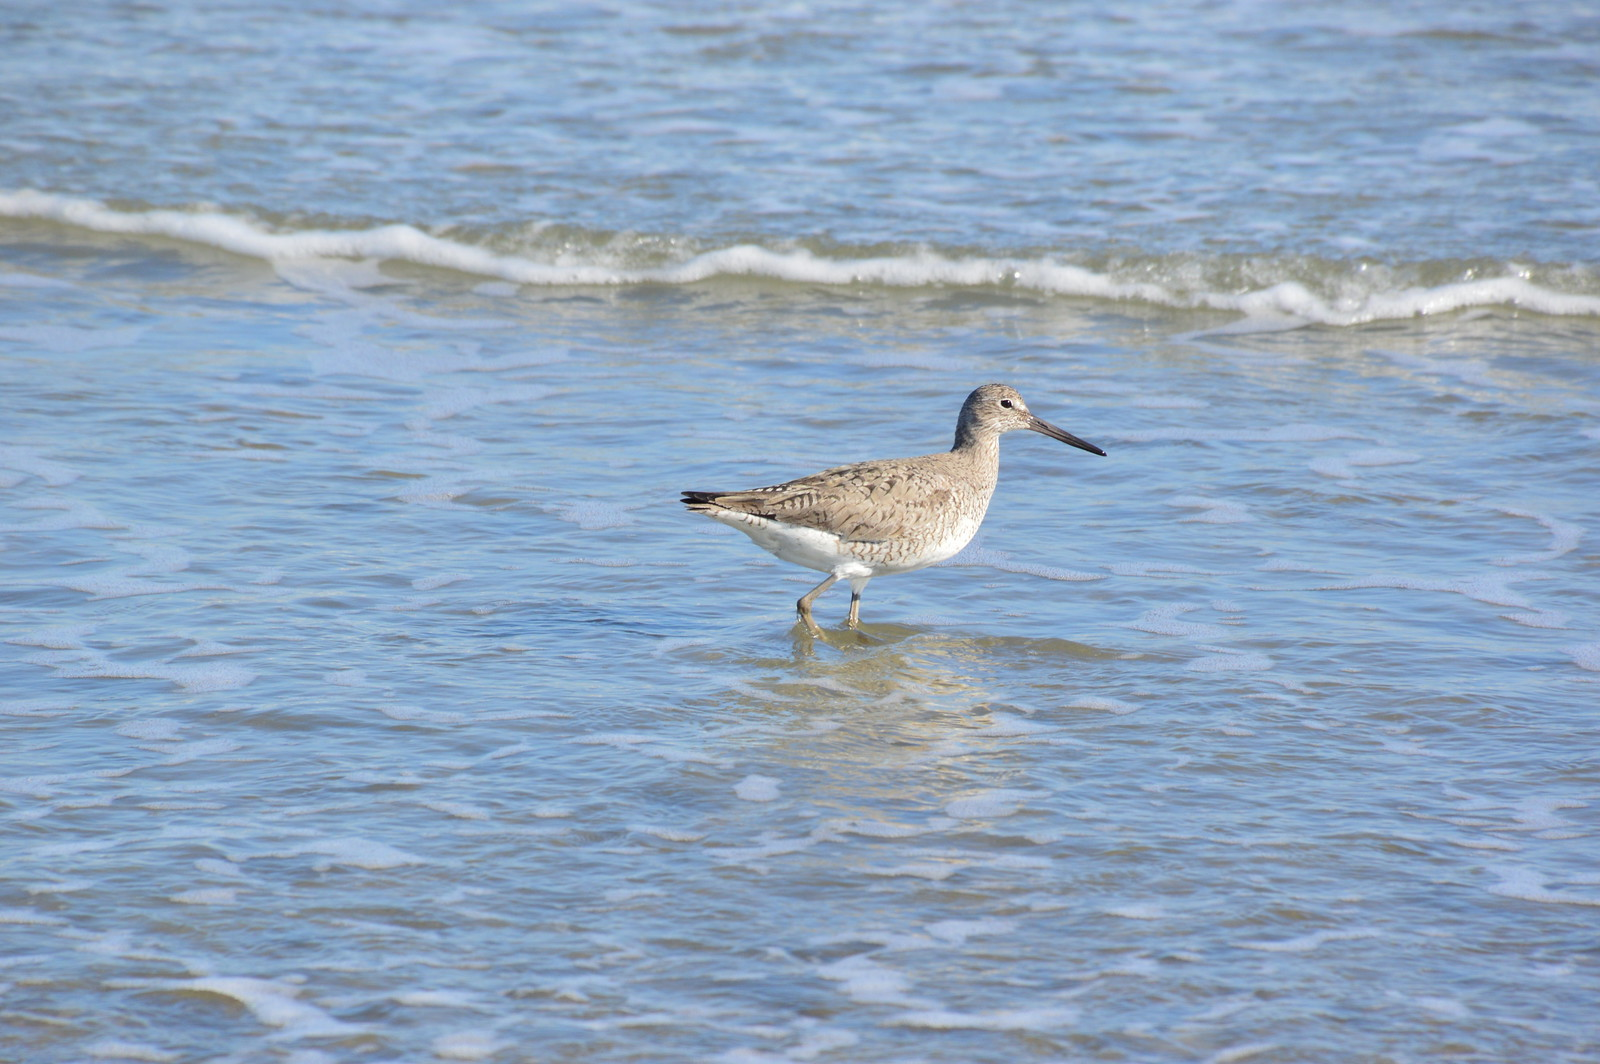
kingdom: Animalia
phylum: Chordata
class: Aves
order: Charadriiformes
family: Scolopacidae
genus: Tringa
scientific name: Tringa semipalmata
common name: Willet
